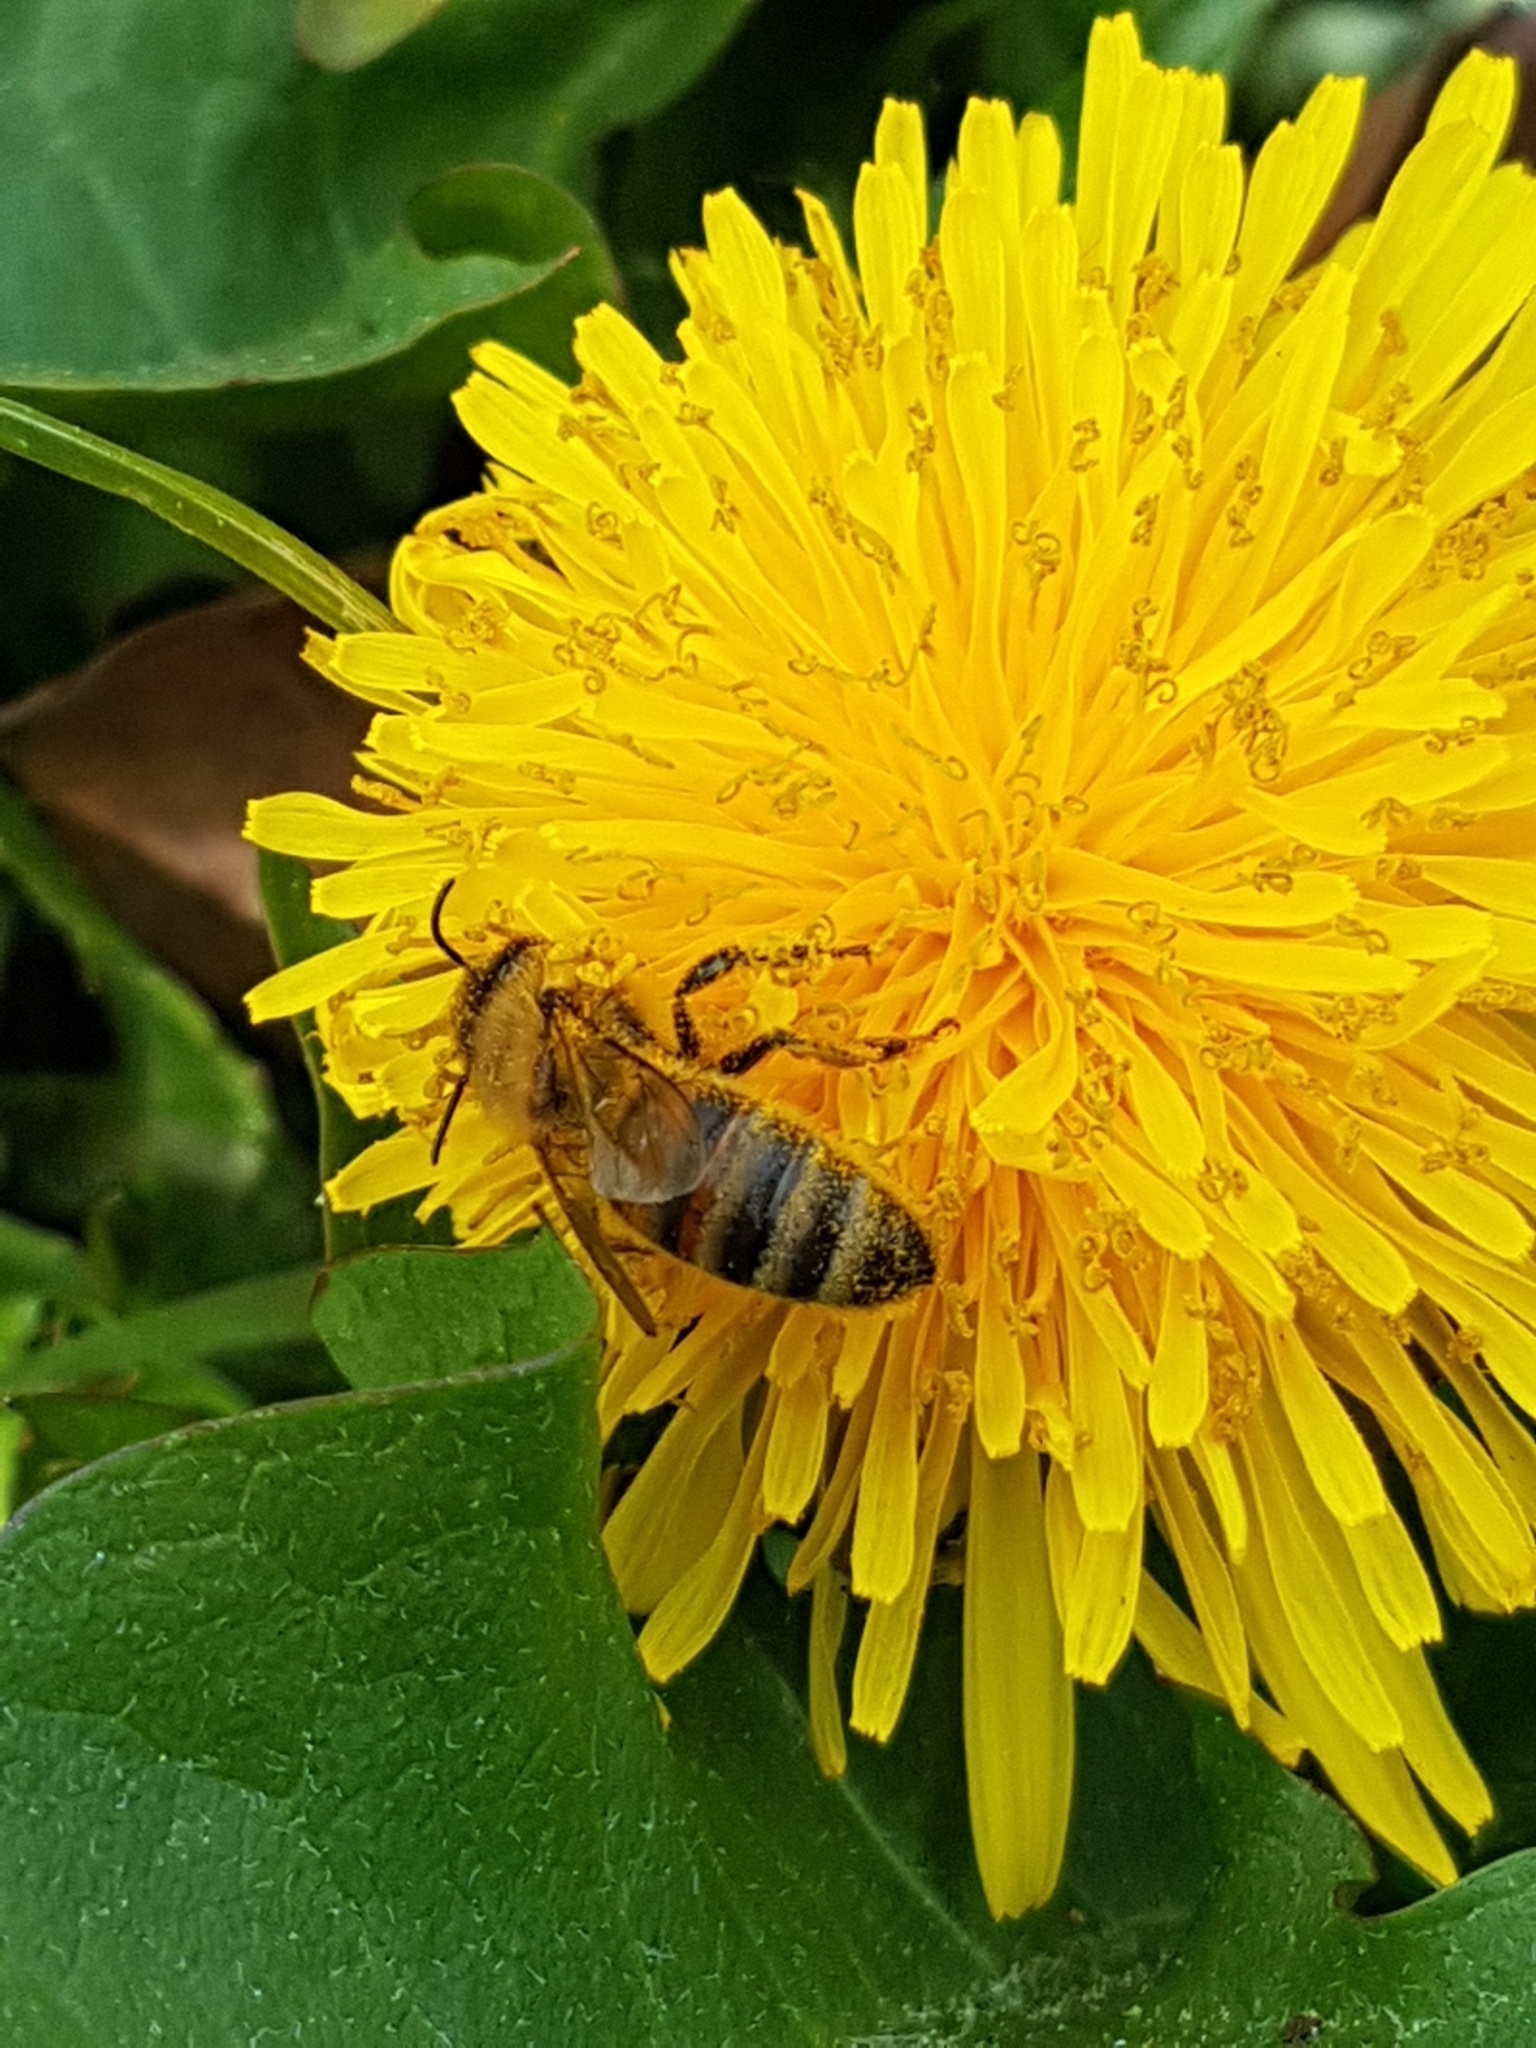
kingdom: Animalia
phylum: Arthropoda
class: Insecta
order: Hymenoptera
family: Apidae
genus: Apis
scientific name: Apis mellifera
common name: Honey bee
